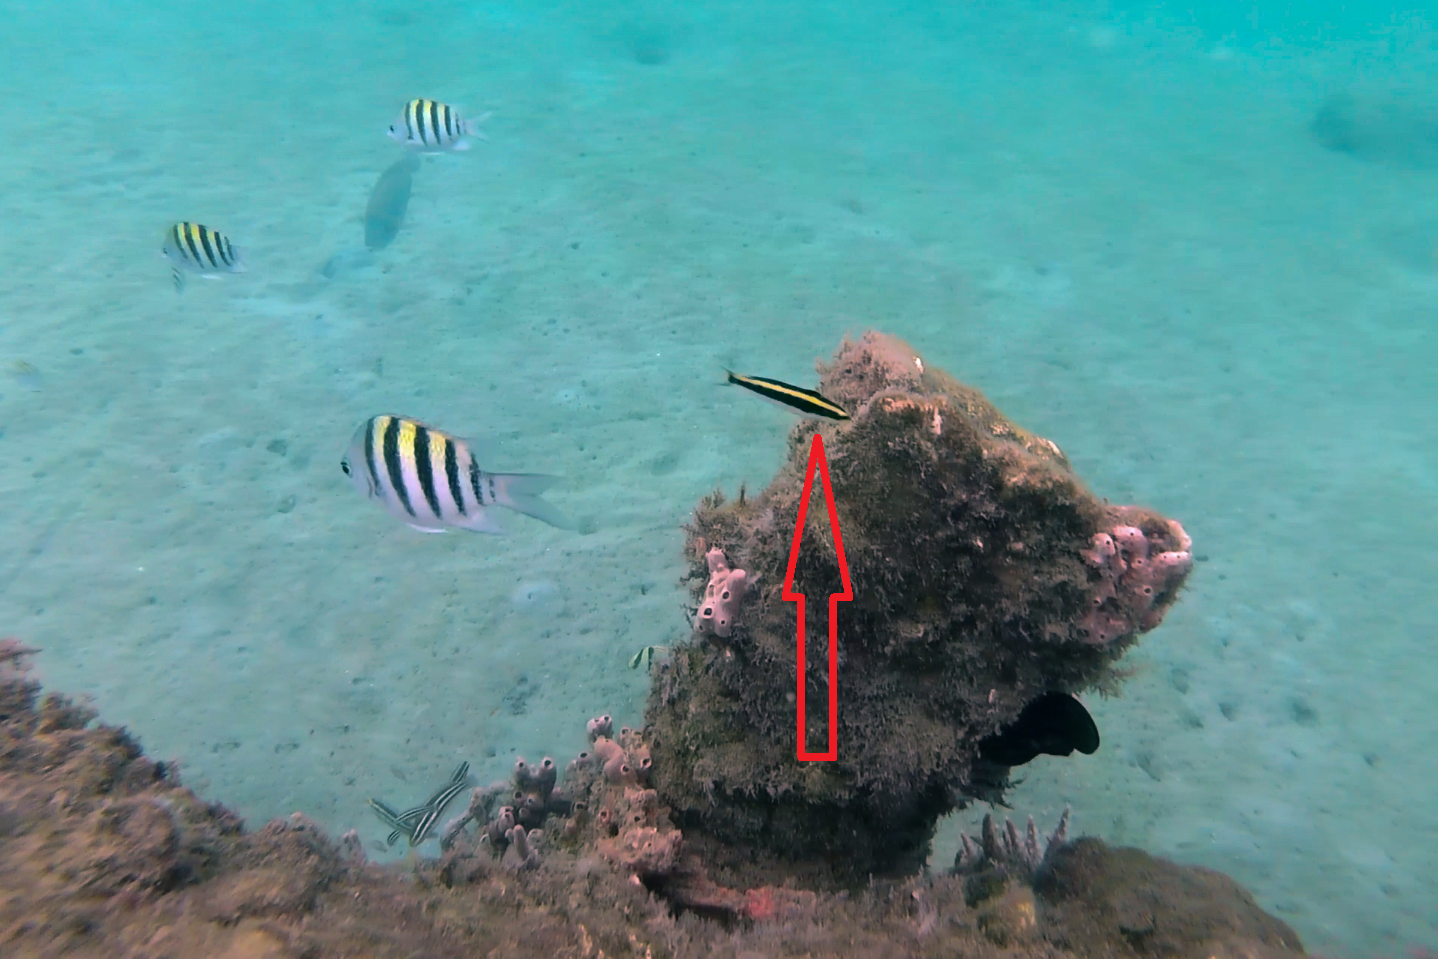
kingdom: Animalia
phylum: Chordata
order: Perciformes
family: Labridae
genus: Thalassoma
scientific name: Thalassoma bifasciatum
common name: Bluehead wrasse
